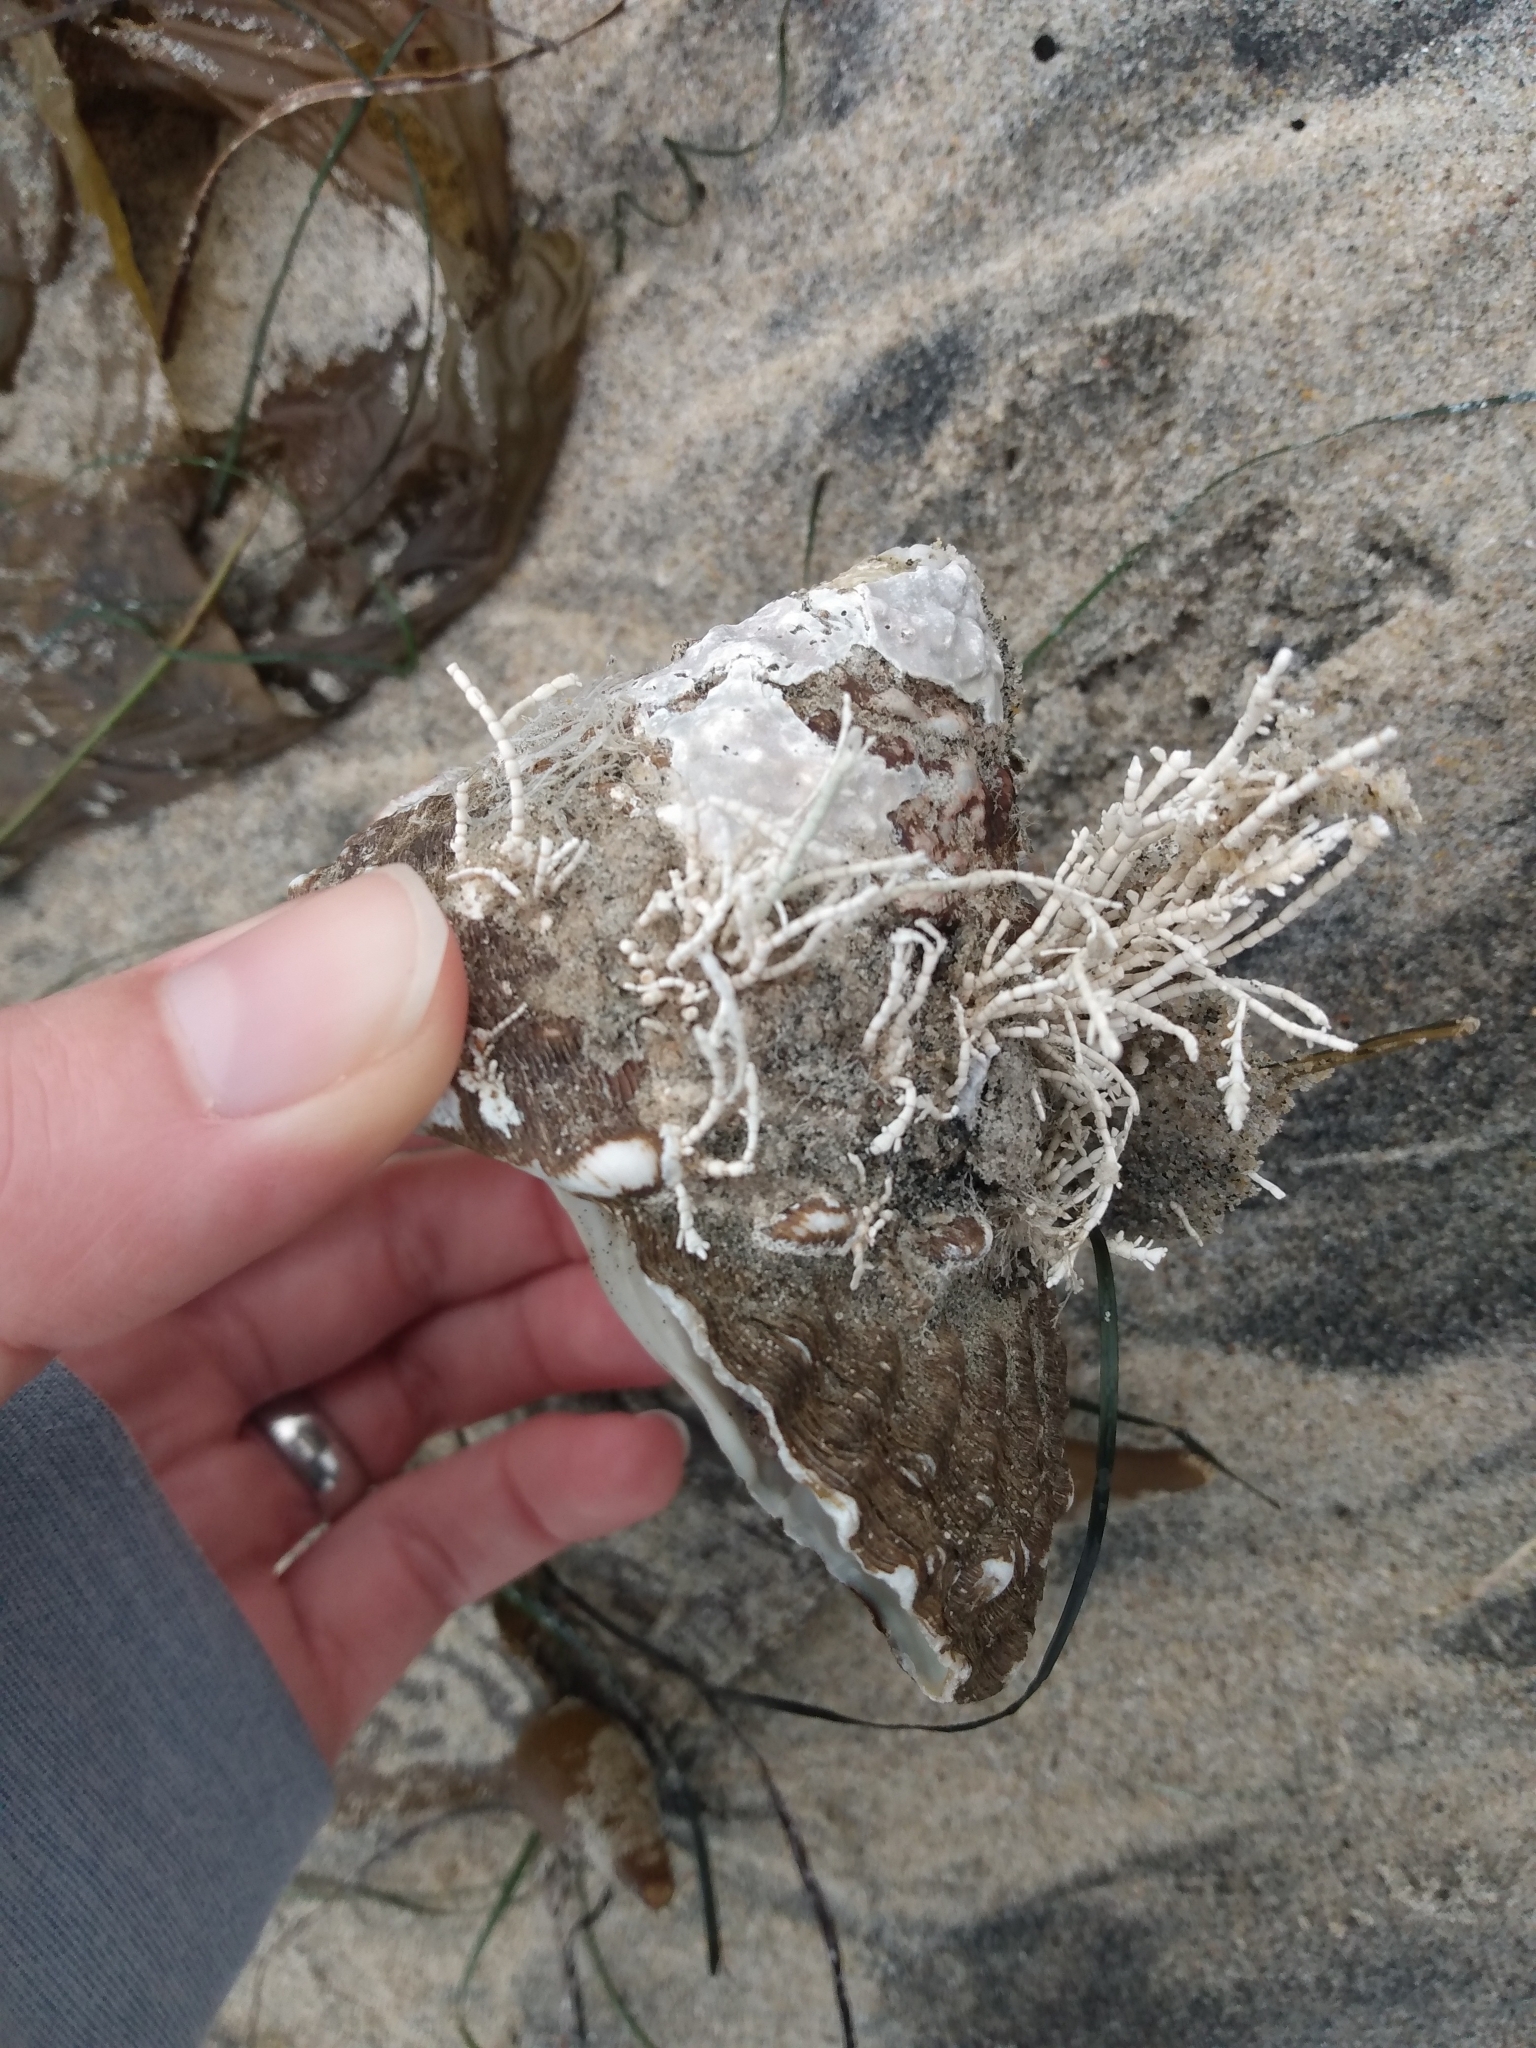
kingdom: Animalia
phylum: Mollusca
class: Gastropoda
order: Trochida
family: Turbinidae
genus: Megastraea
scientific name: Megastraea undosa
